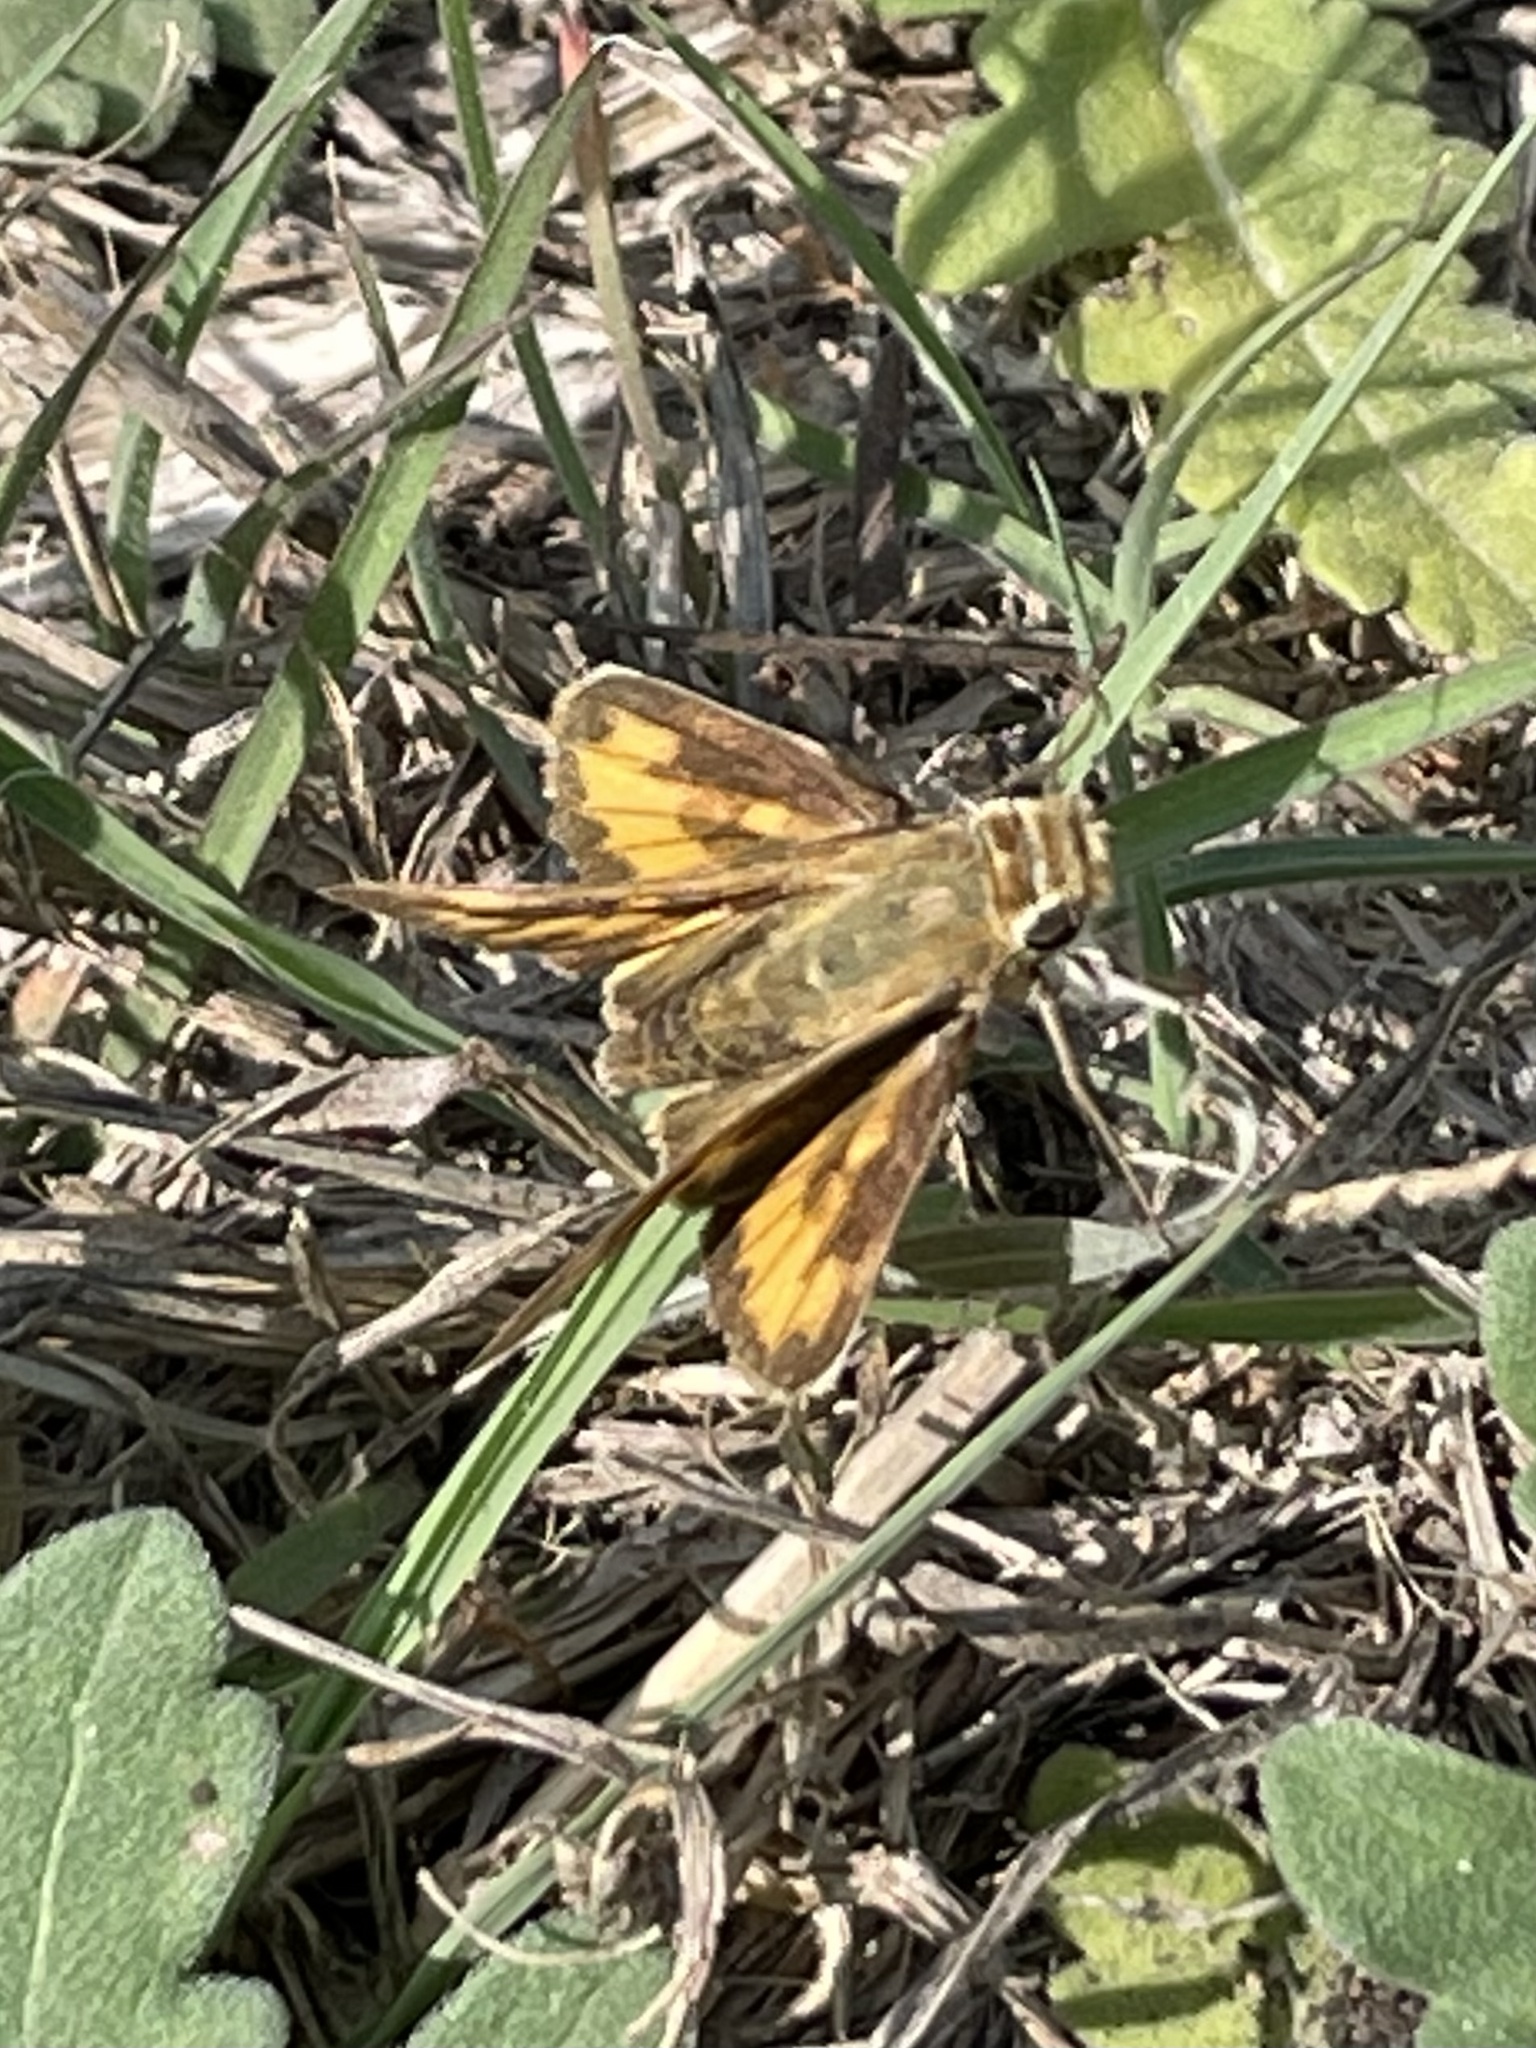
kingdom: Animalia
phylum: Arthropoda
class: Insecta
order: Lepidoptera
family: Hesperiidae
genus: Hylephila
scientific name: Hylephila phyleus
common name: Fiery skipper
